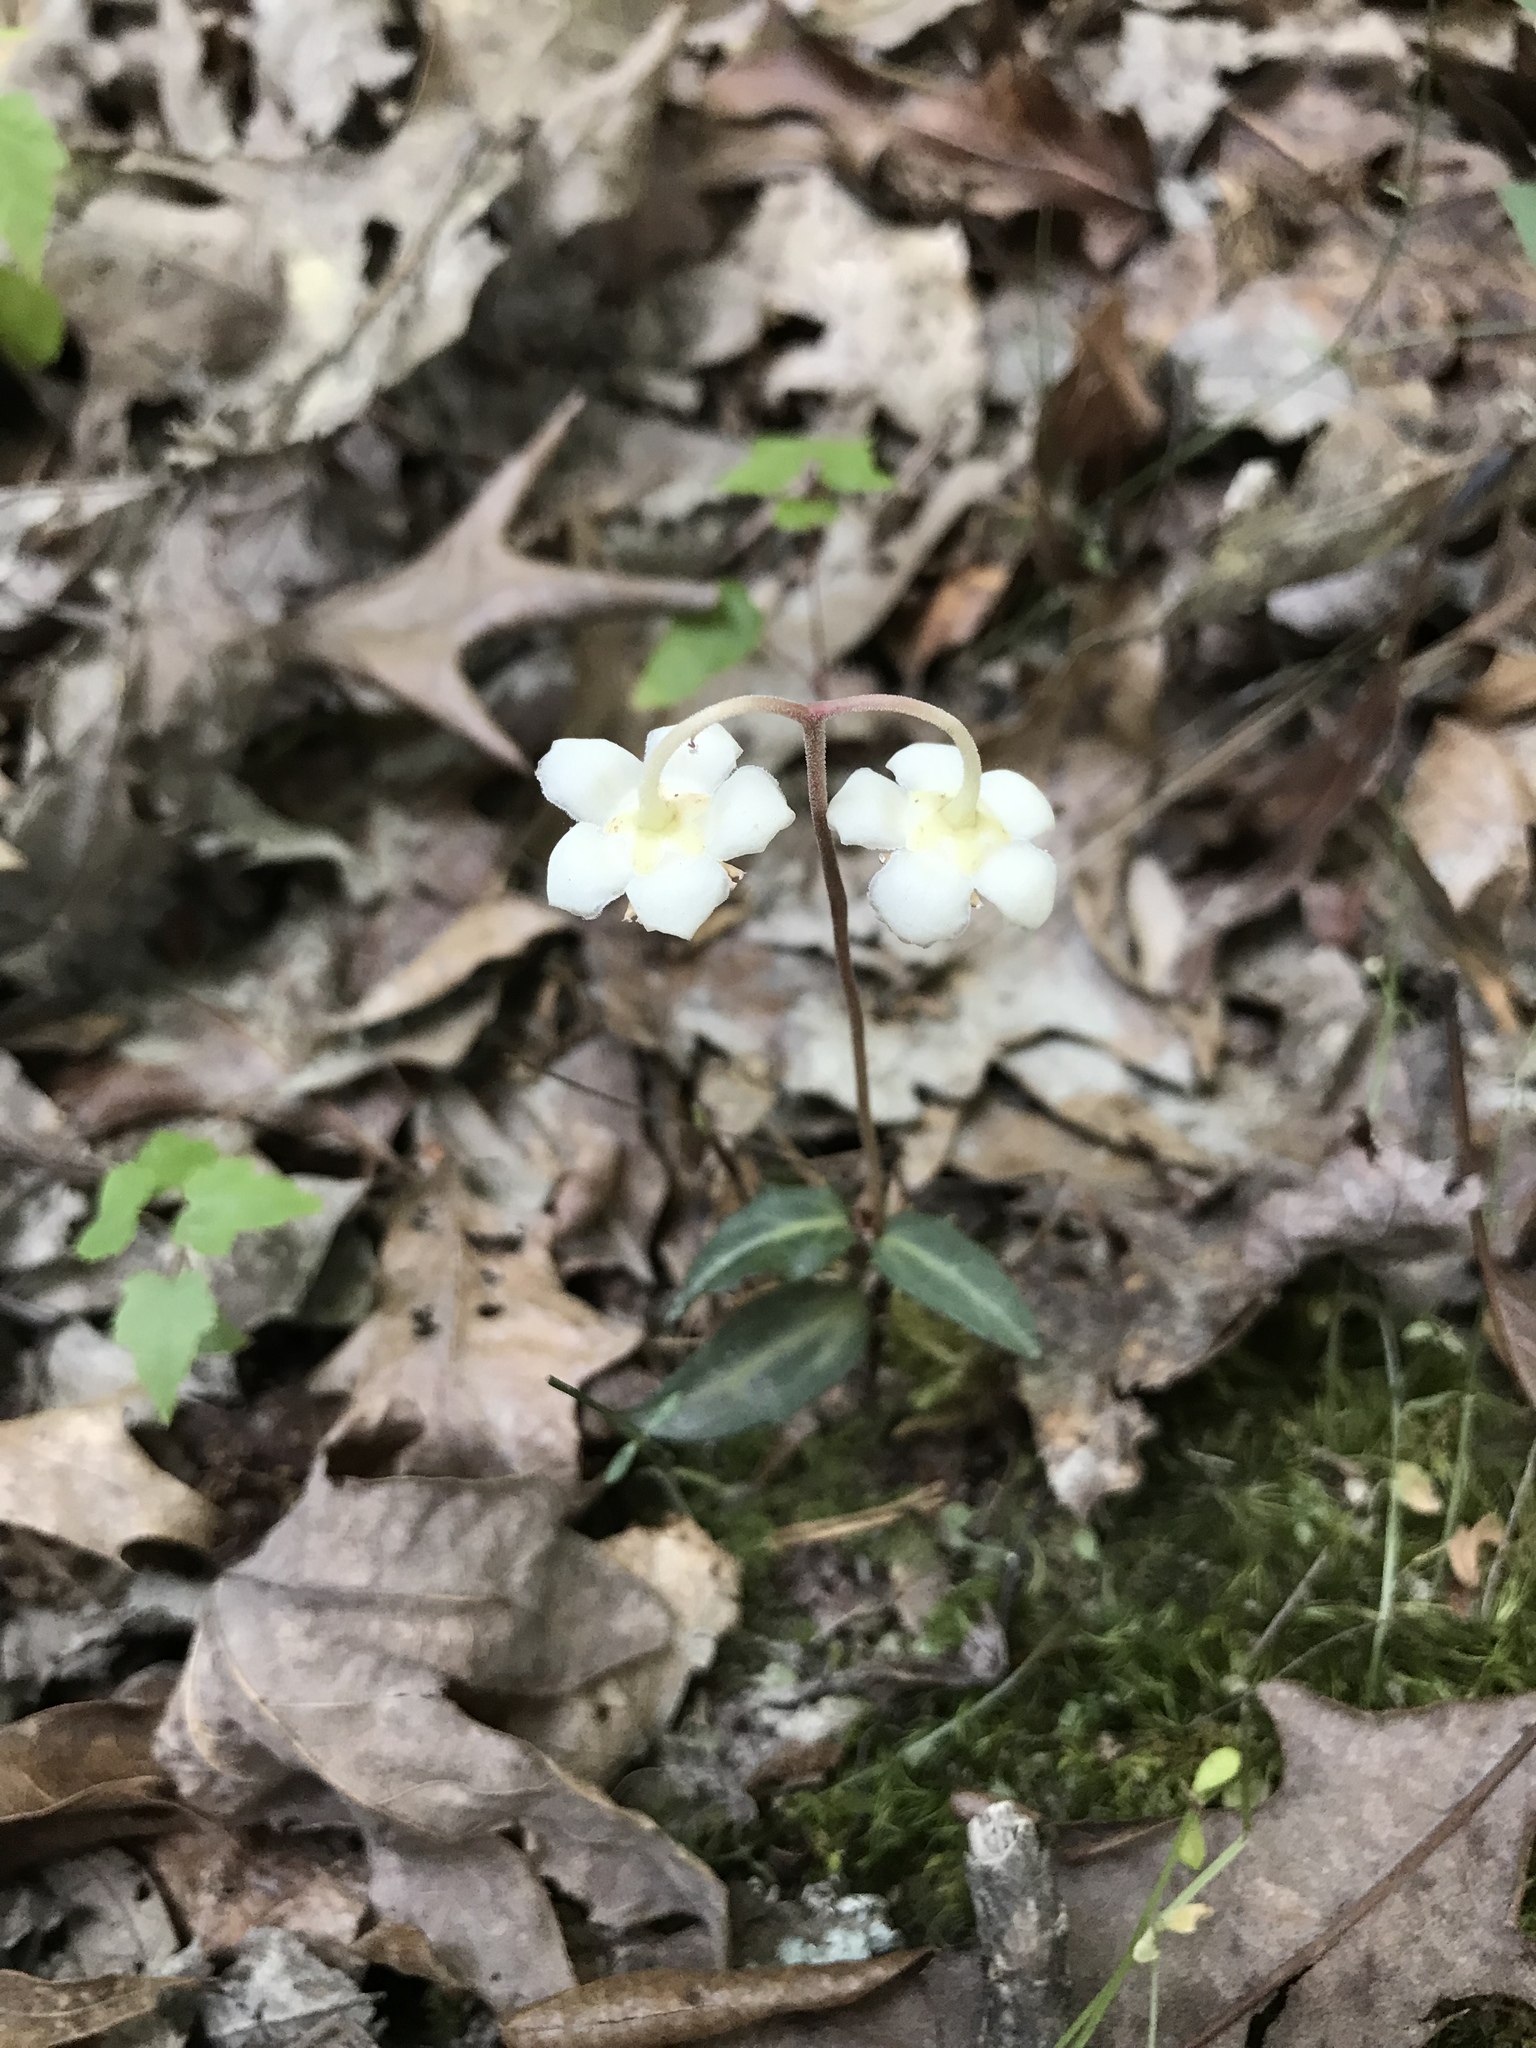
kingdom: Plantae
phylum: Tracheophyta
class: Magnoliopsida
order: Ericales
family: Ericaceae
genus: Chimaphila
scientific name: Chimaphila maculata
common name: Spotted pipsissewa
